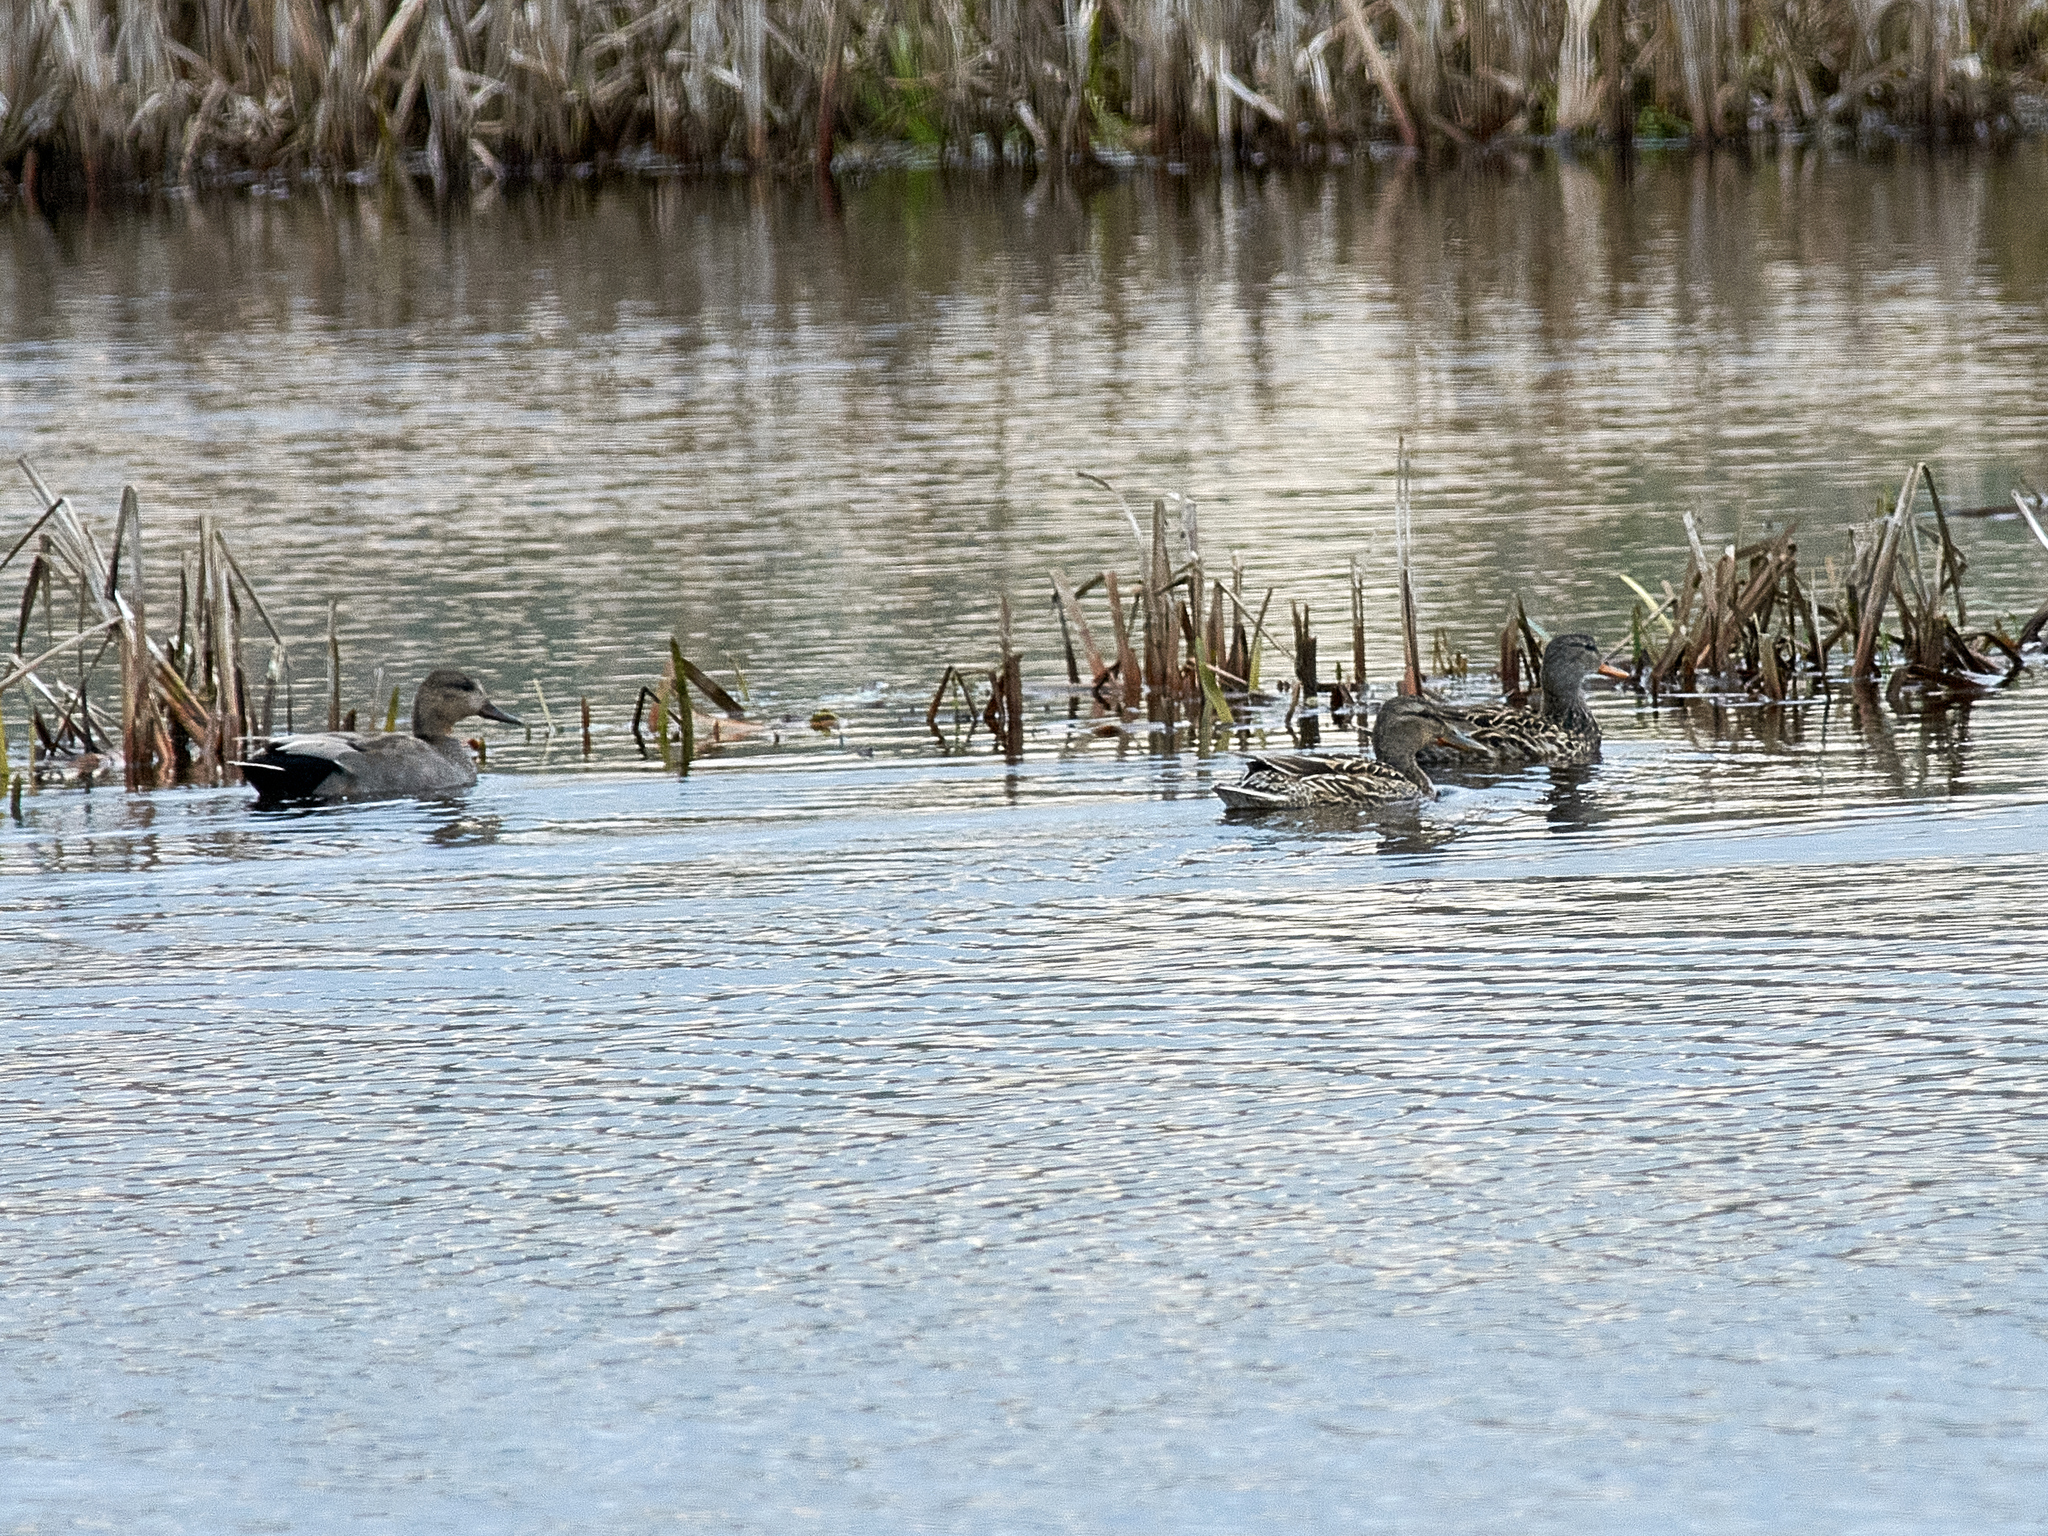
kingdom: Animalia
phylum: Chordata
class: Aves
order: Anseriformes
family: Anatidae
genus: Mareca
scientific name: Mareca strepera
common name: Gadwall
